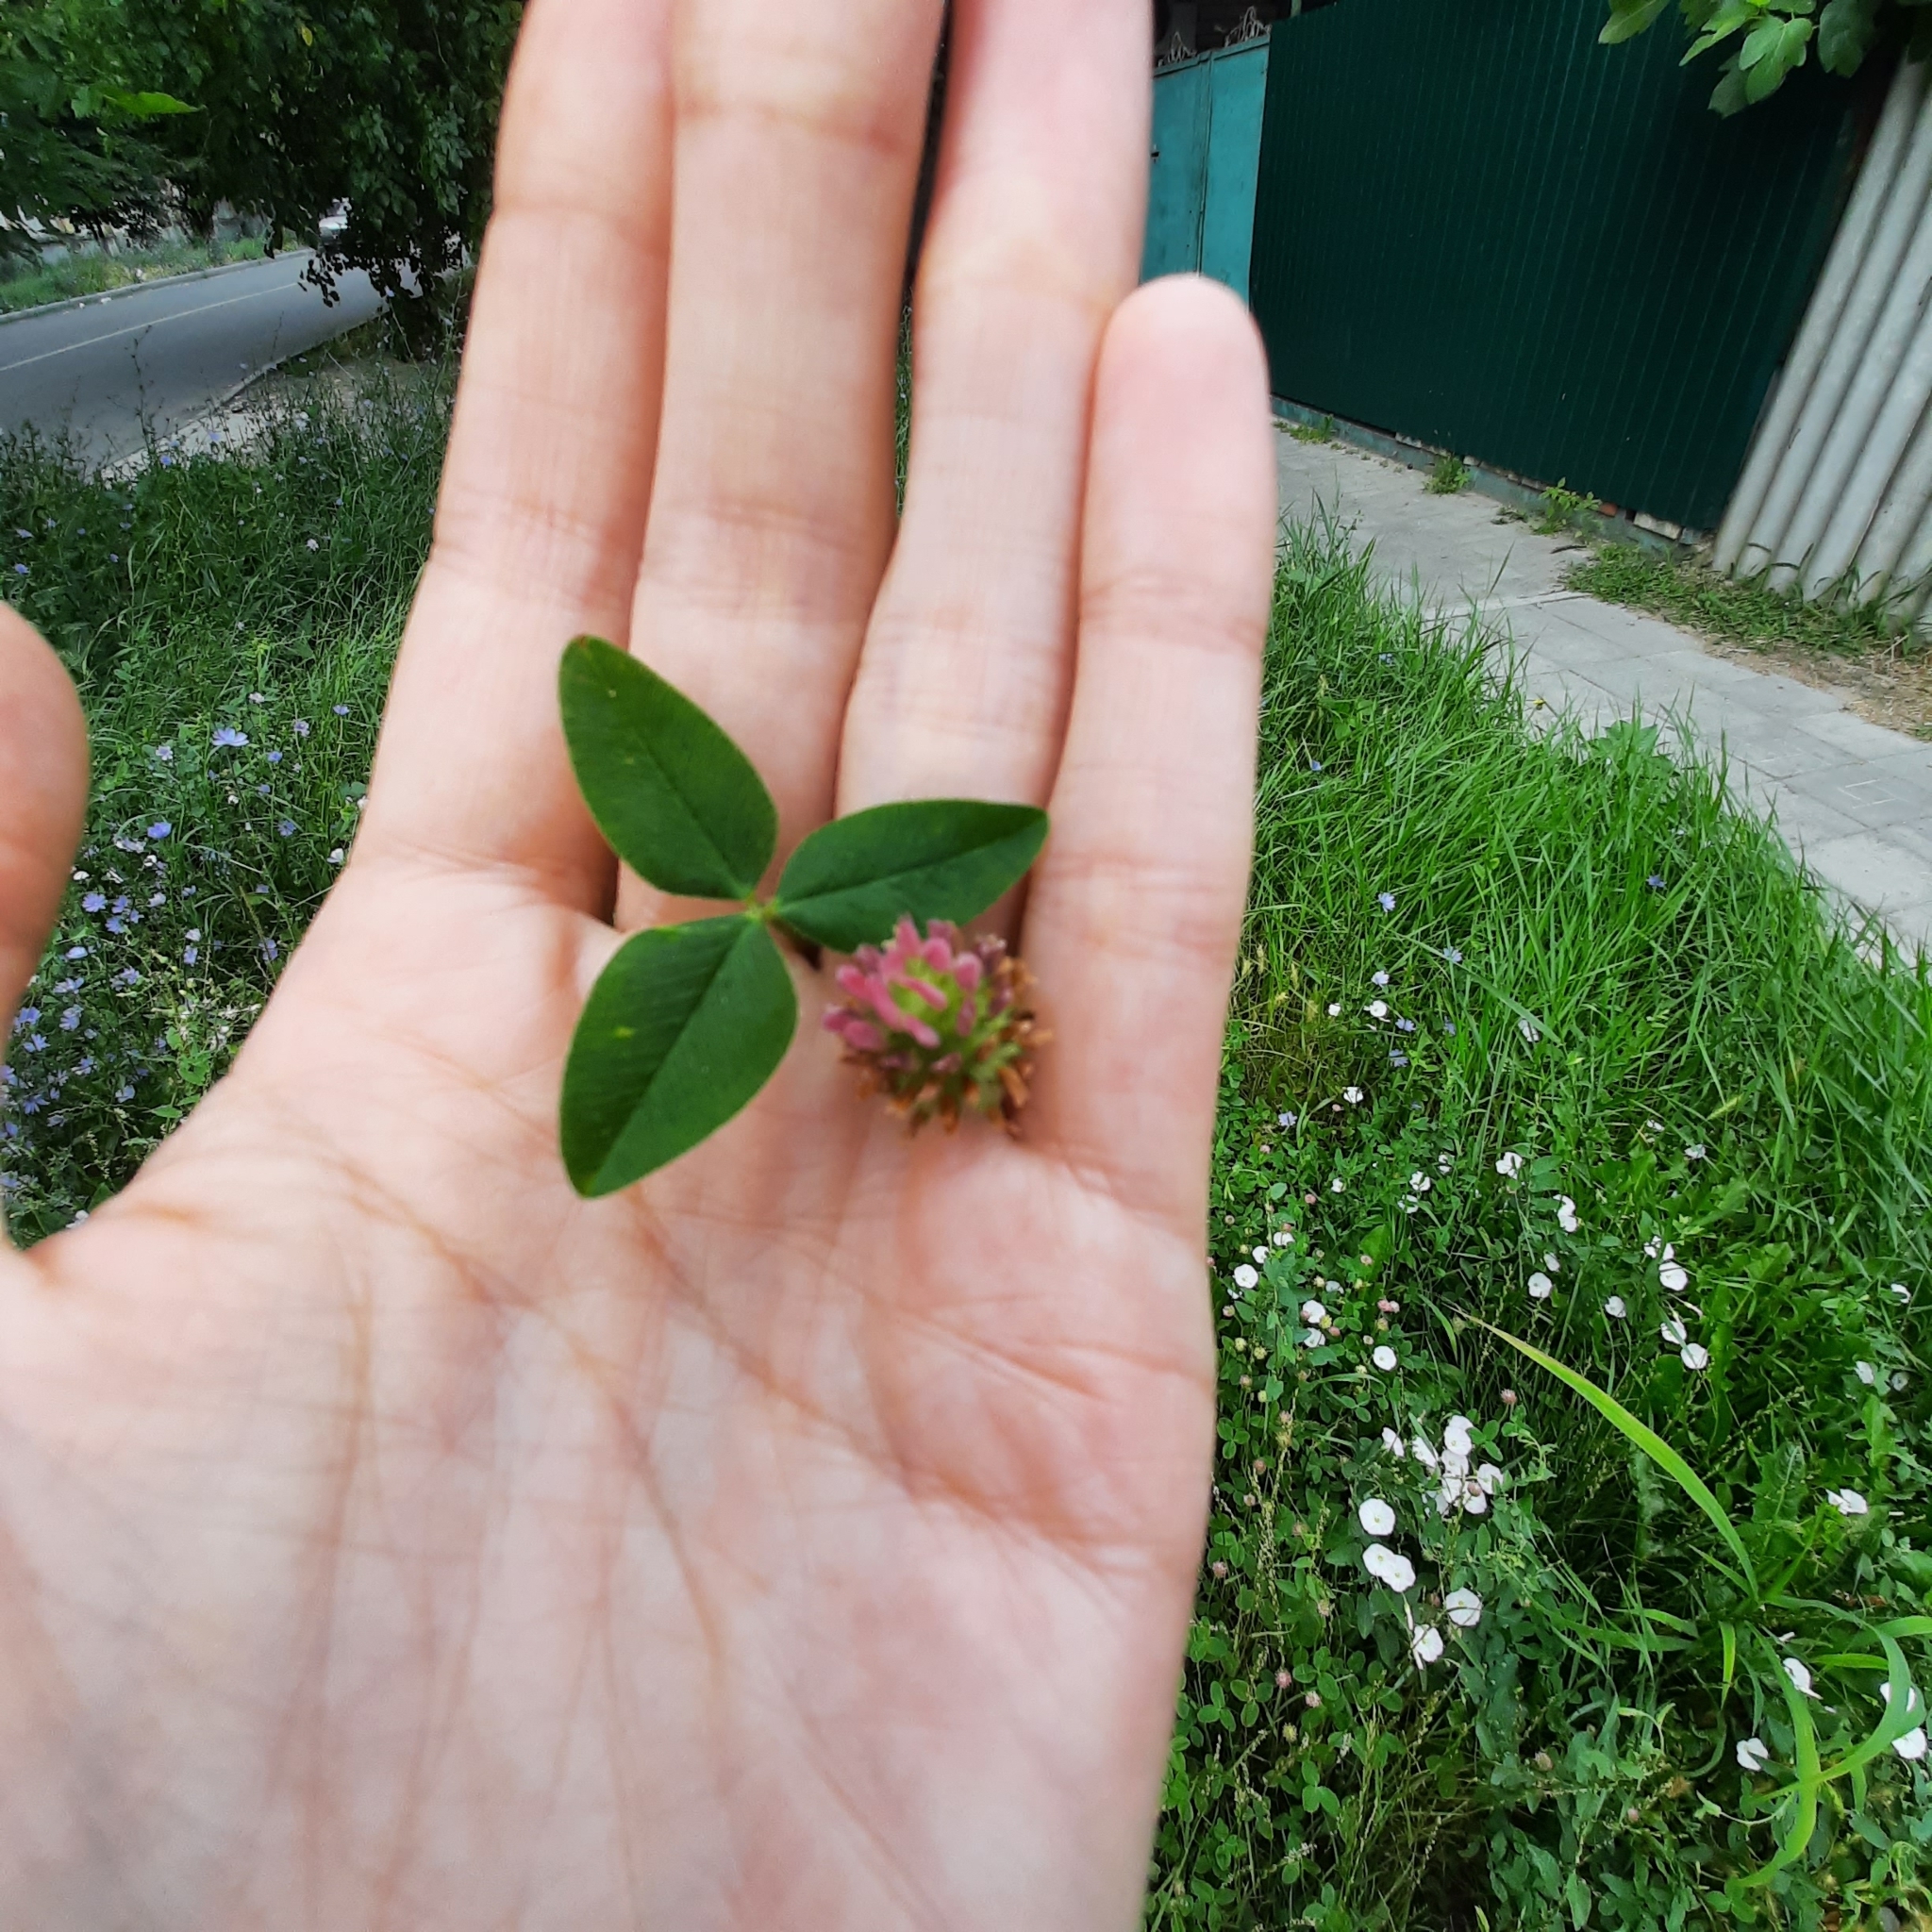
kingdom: Plantae
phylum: Tracheophyta
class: Magnoliopsida
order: Fabales
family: Fabaceae
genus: Trifolium
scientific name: Trifolium fragiferum
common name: Strawberry clover
